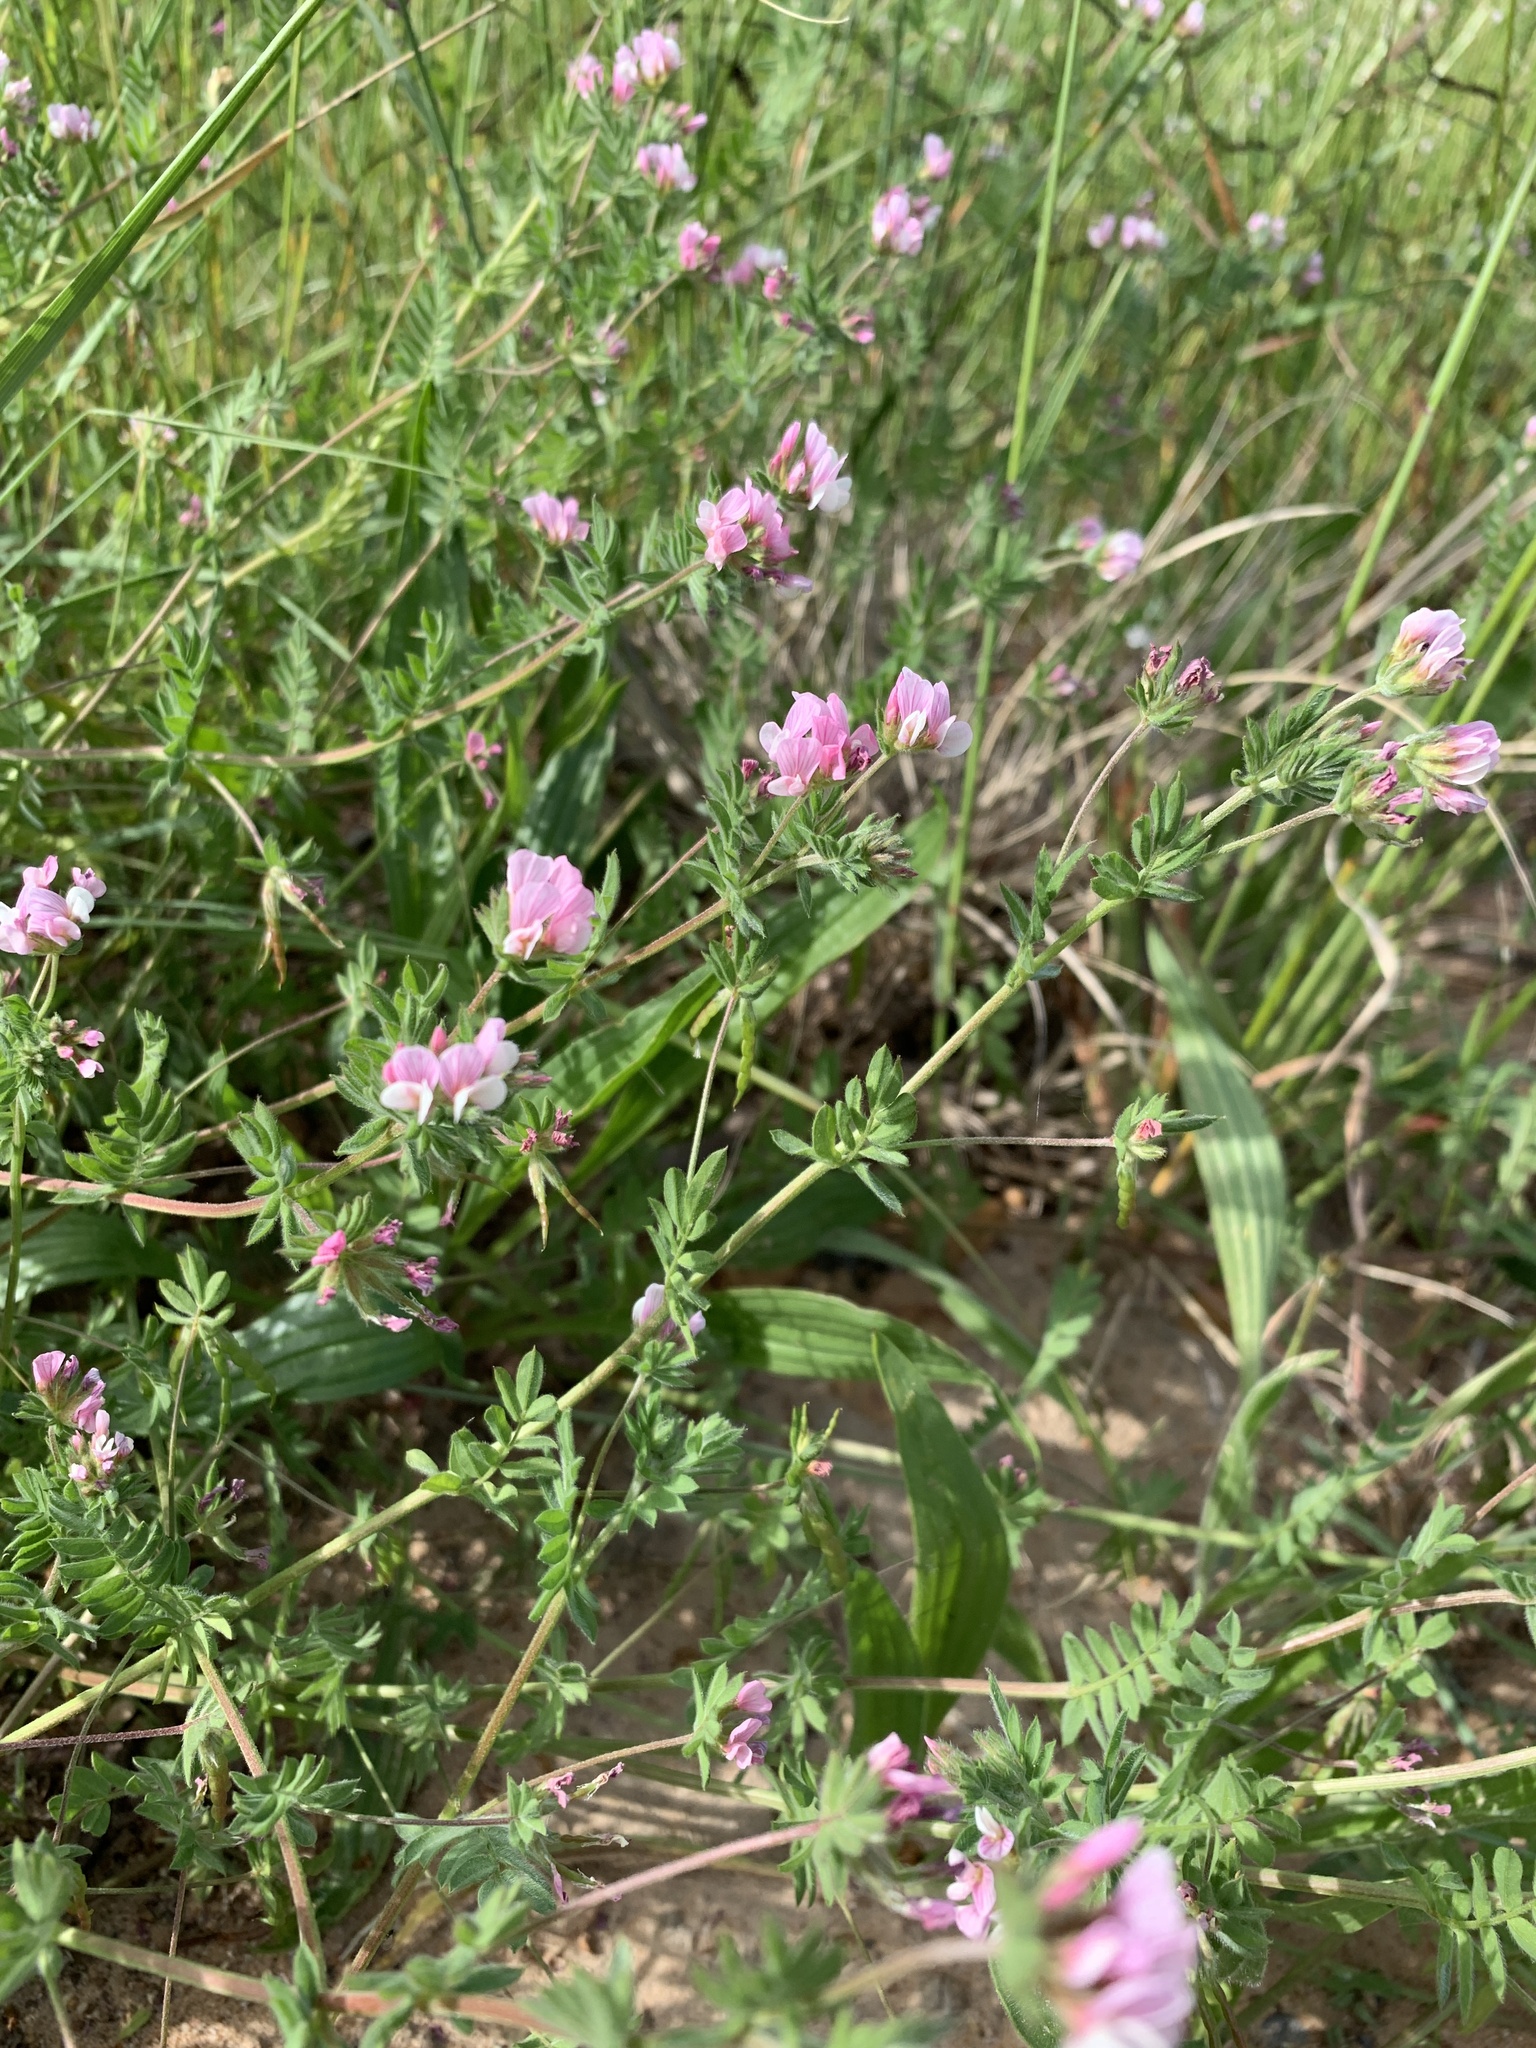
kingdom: Plantae
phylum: Tracheophyta
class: Magnoliopsida
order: Fabales
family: Fabaceae
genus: Ornithopus
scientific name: Ornithopus sativus
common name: Serradella
